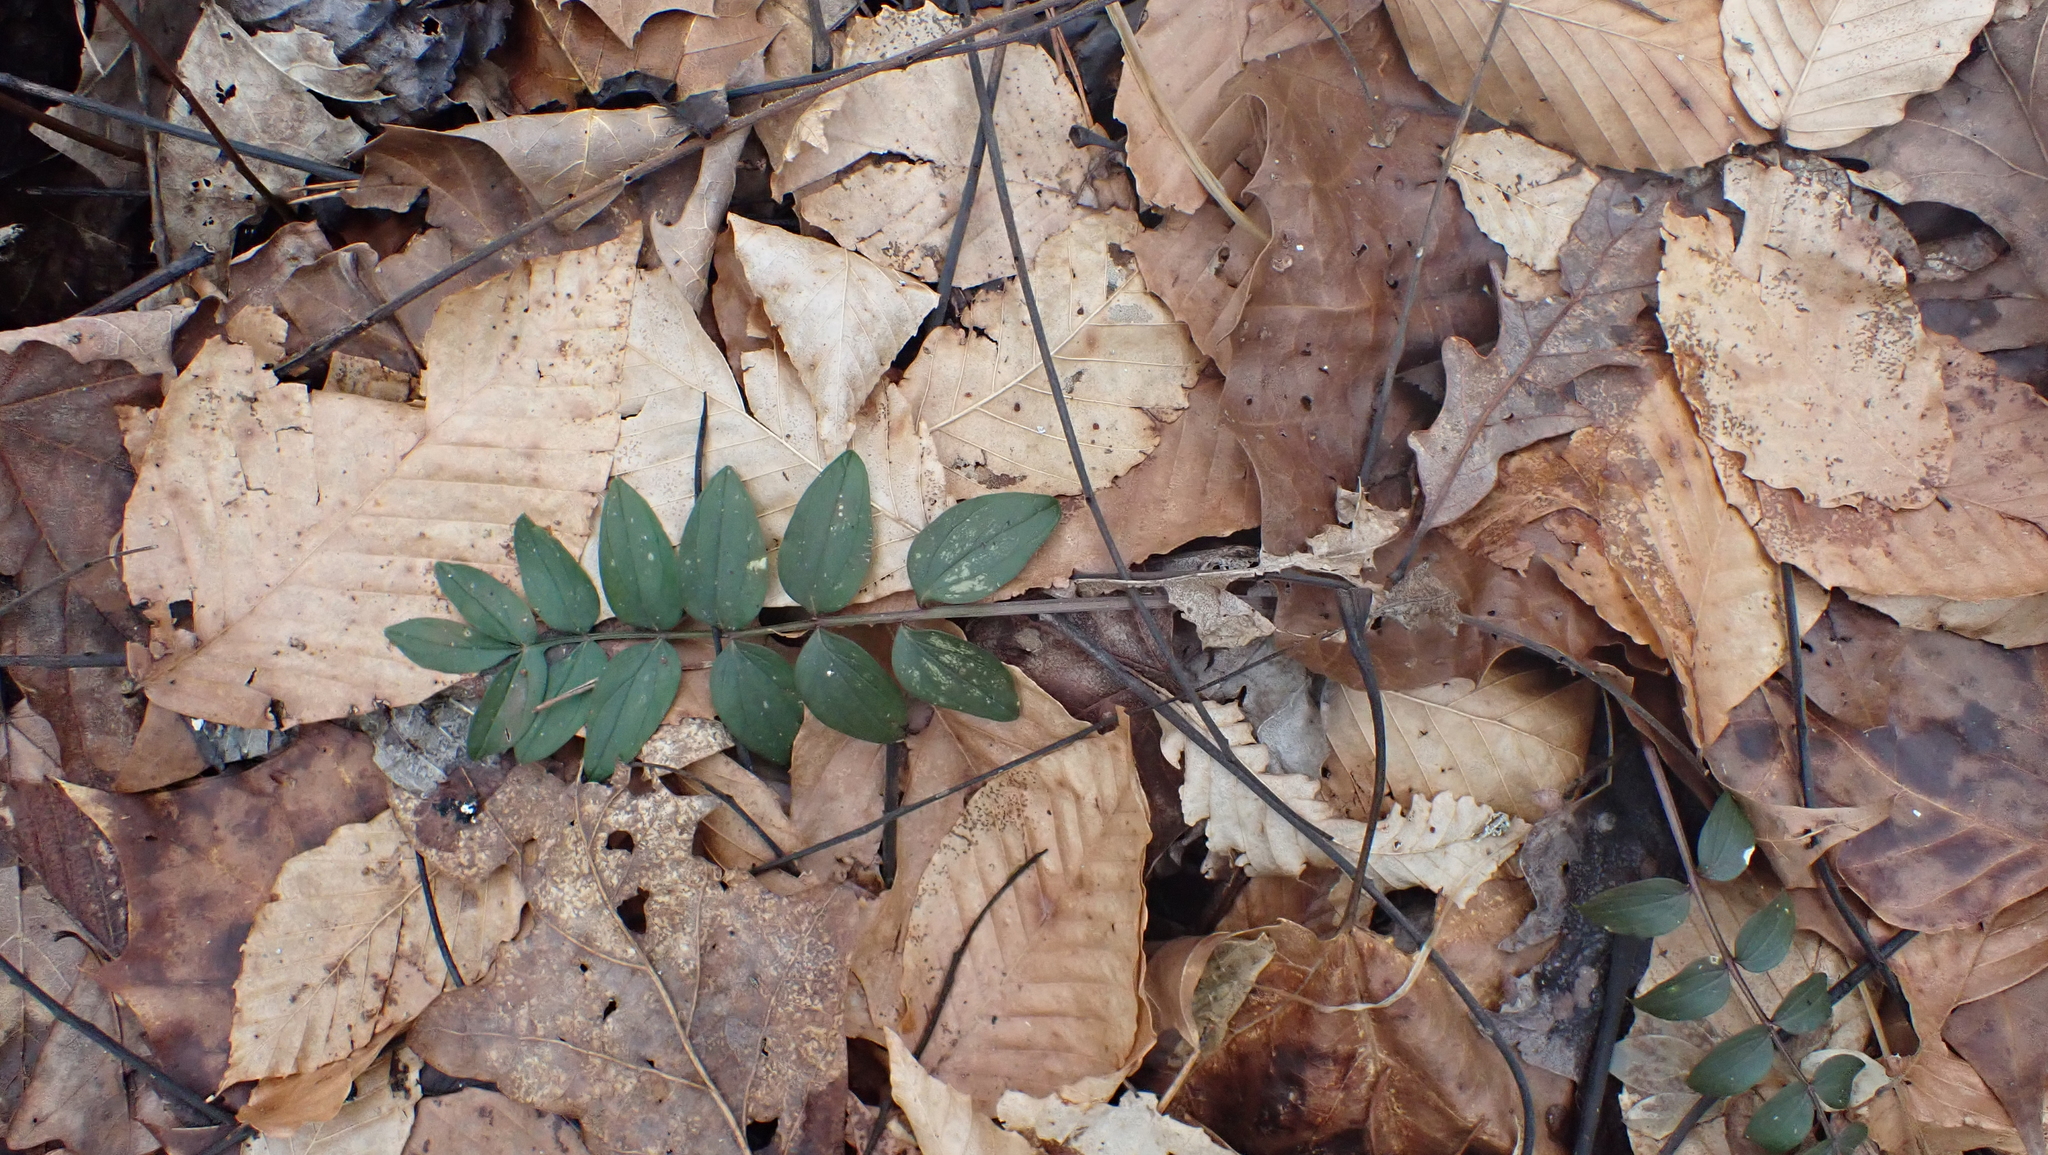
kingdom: Plantae
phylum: Tracheophyta
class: Magnoliopsida
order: Ericales
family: Polemoniaceae
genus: Polemonium
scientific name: Polemonium reptans
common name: Creeping jacob's-ladder
